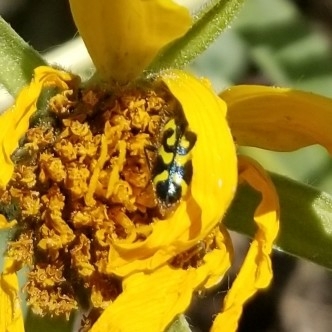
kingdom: Animalia
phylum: Arthropoda
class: Insecta
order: Coleoptera
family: Cleridae
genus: Trichodes
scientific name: Trichodes ornatus
